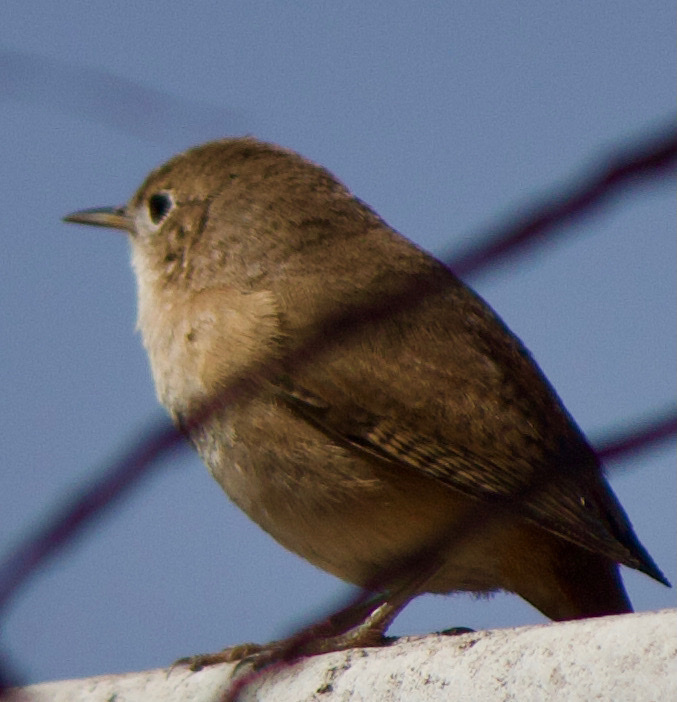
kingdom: Animalia
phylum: Chordata
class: Aves
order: Passeriformes
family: Troglodytidae
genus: Troglodytes
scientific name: Troglodytes aedon
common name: House wren
